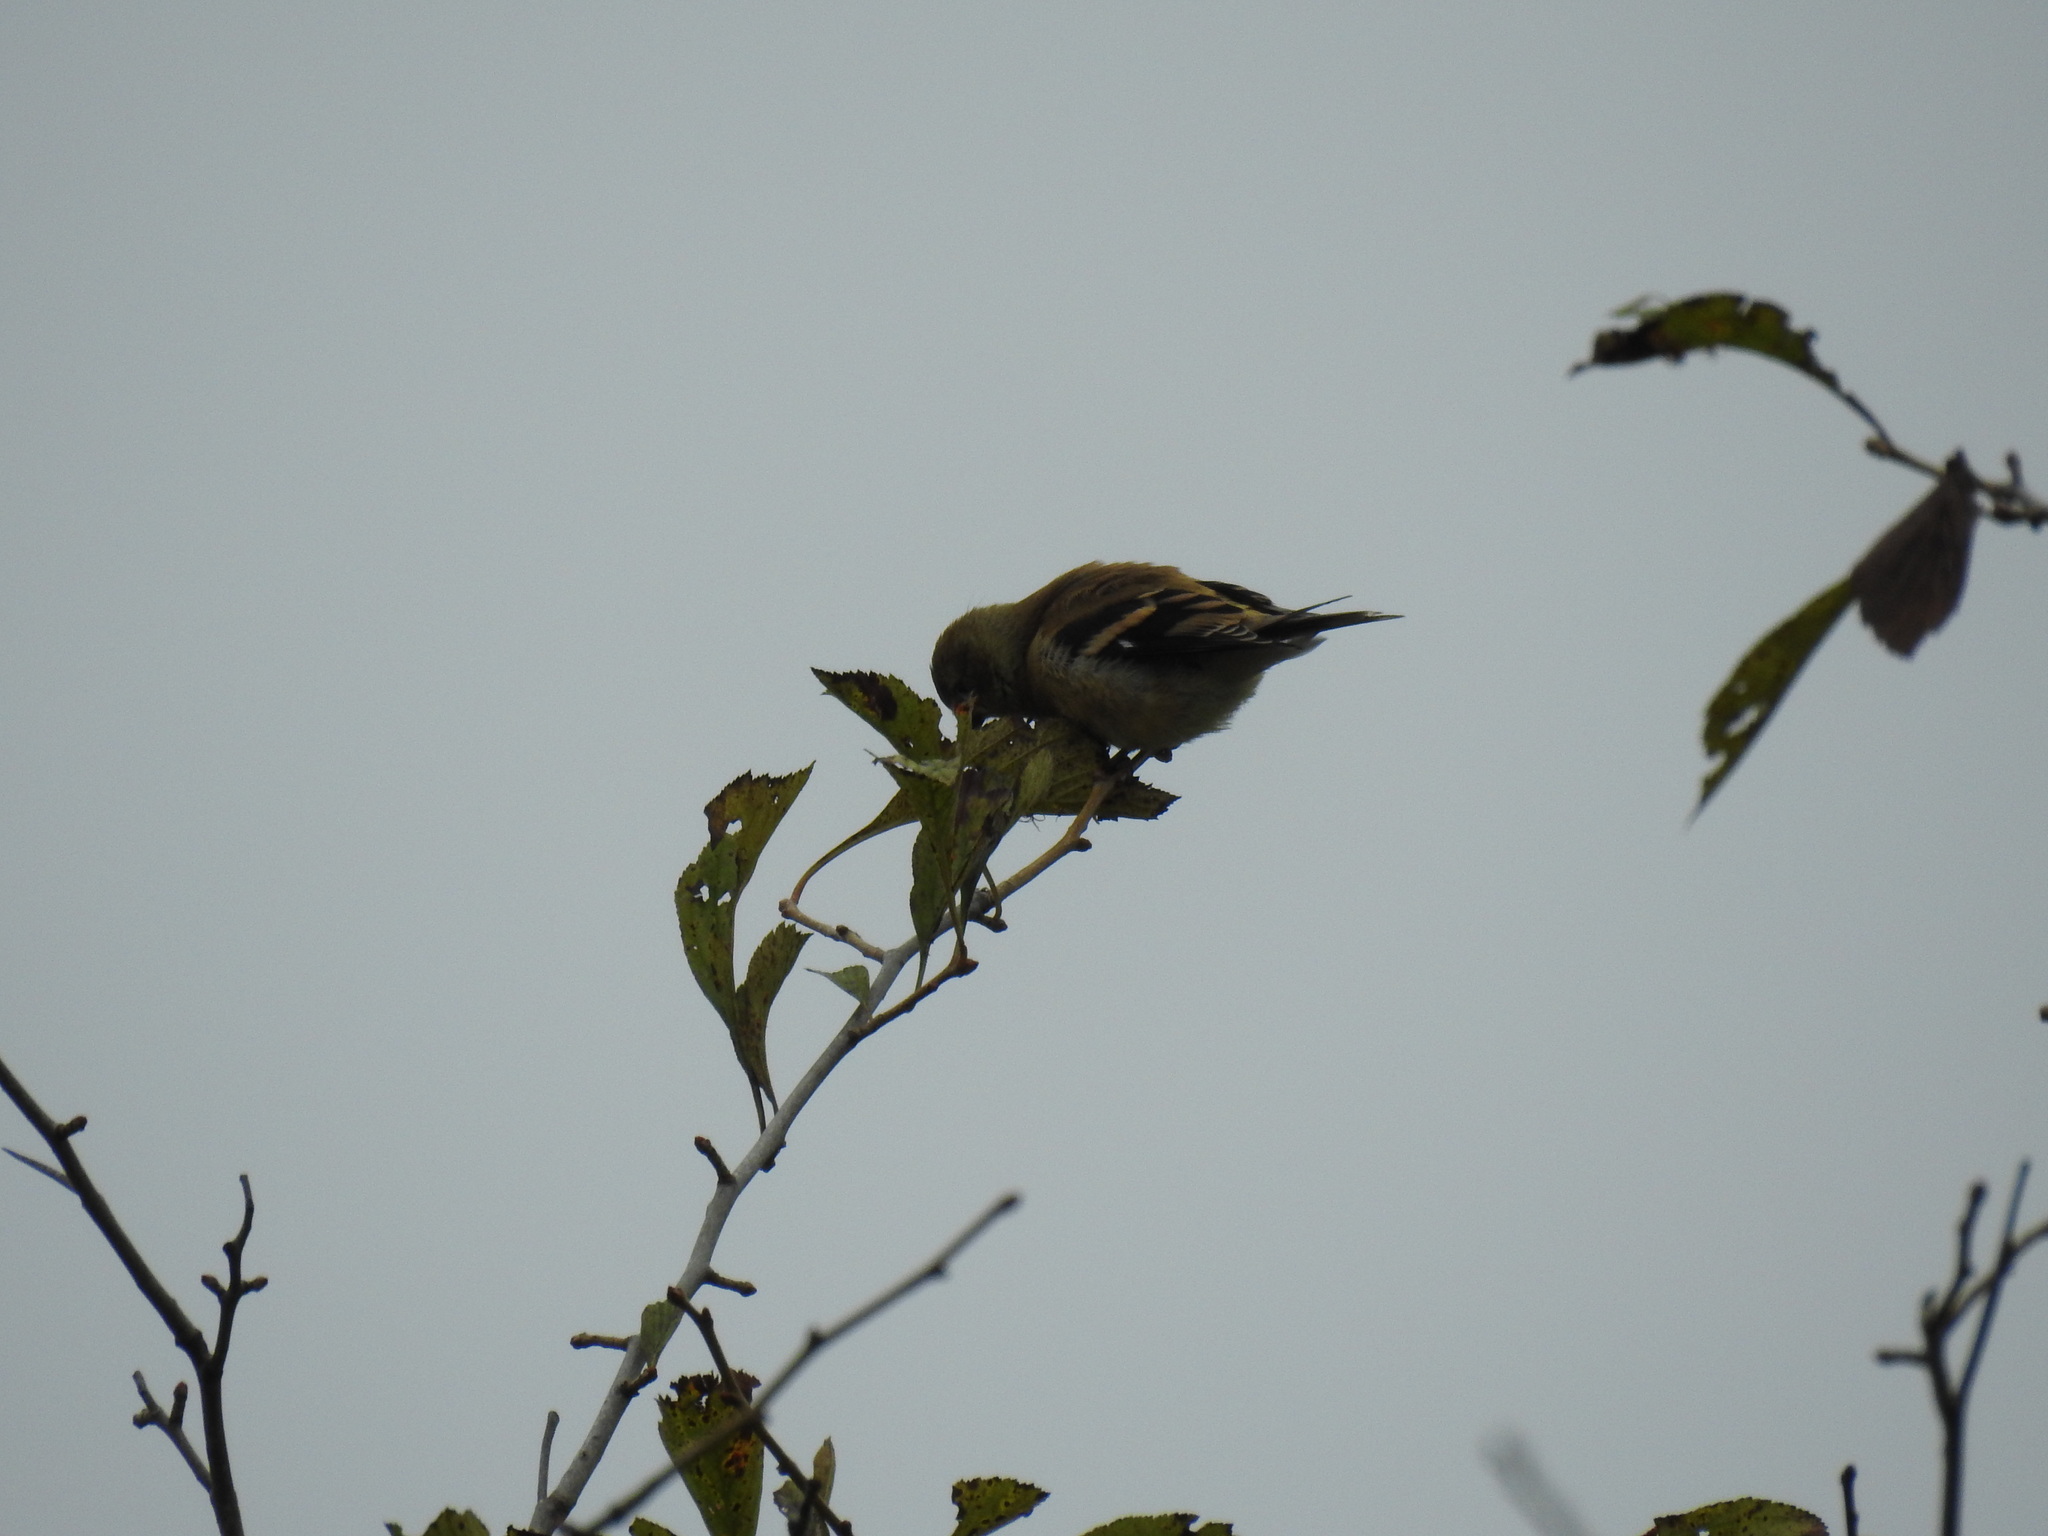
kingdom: Animalia
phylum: Chordata
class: Aves
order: Passeriformes
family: Fringillidae
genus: Spinus
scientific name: Spinus tristis
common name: American goldfinch
